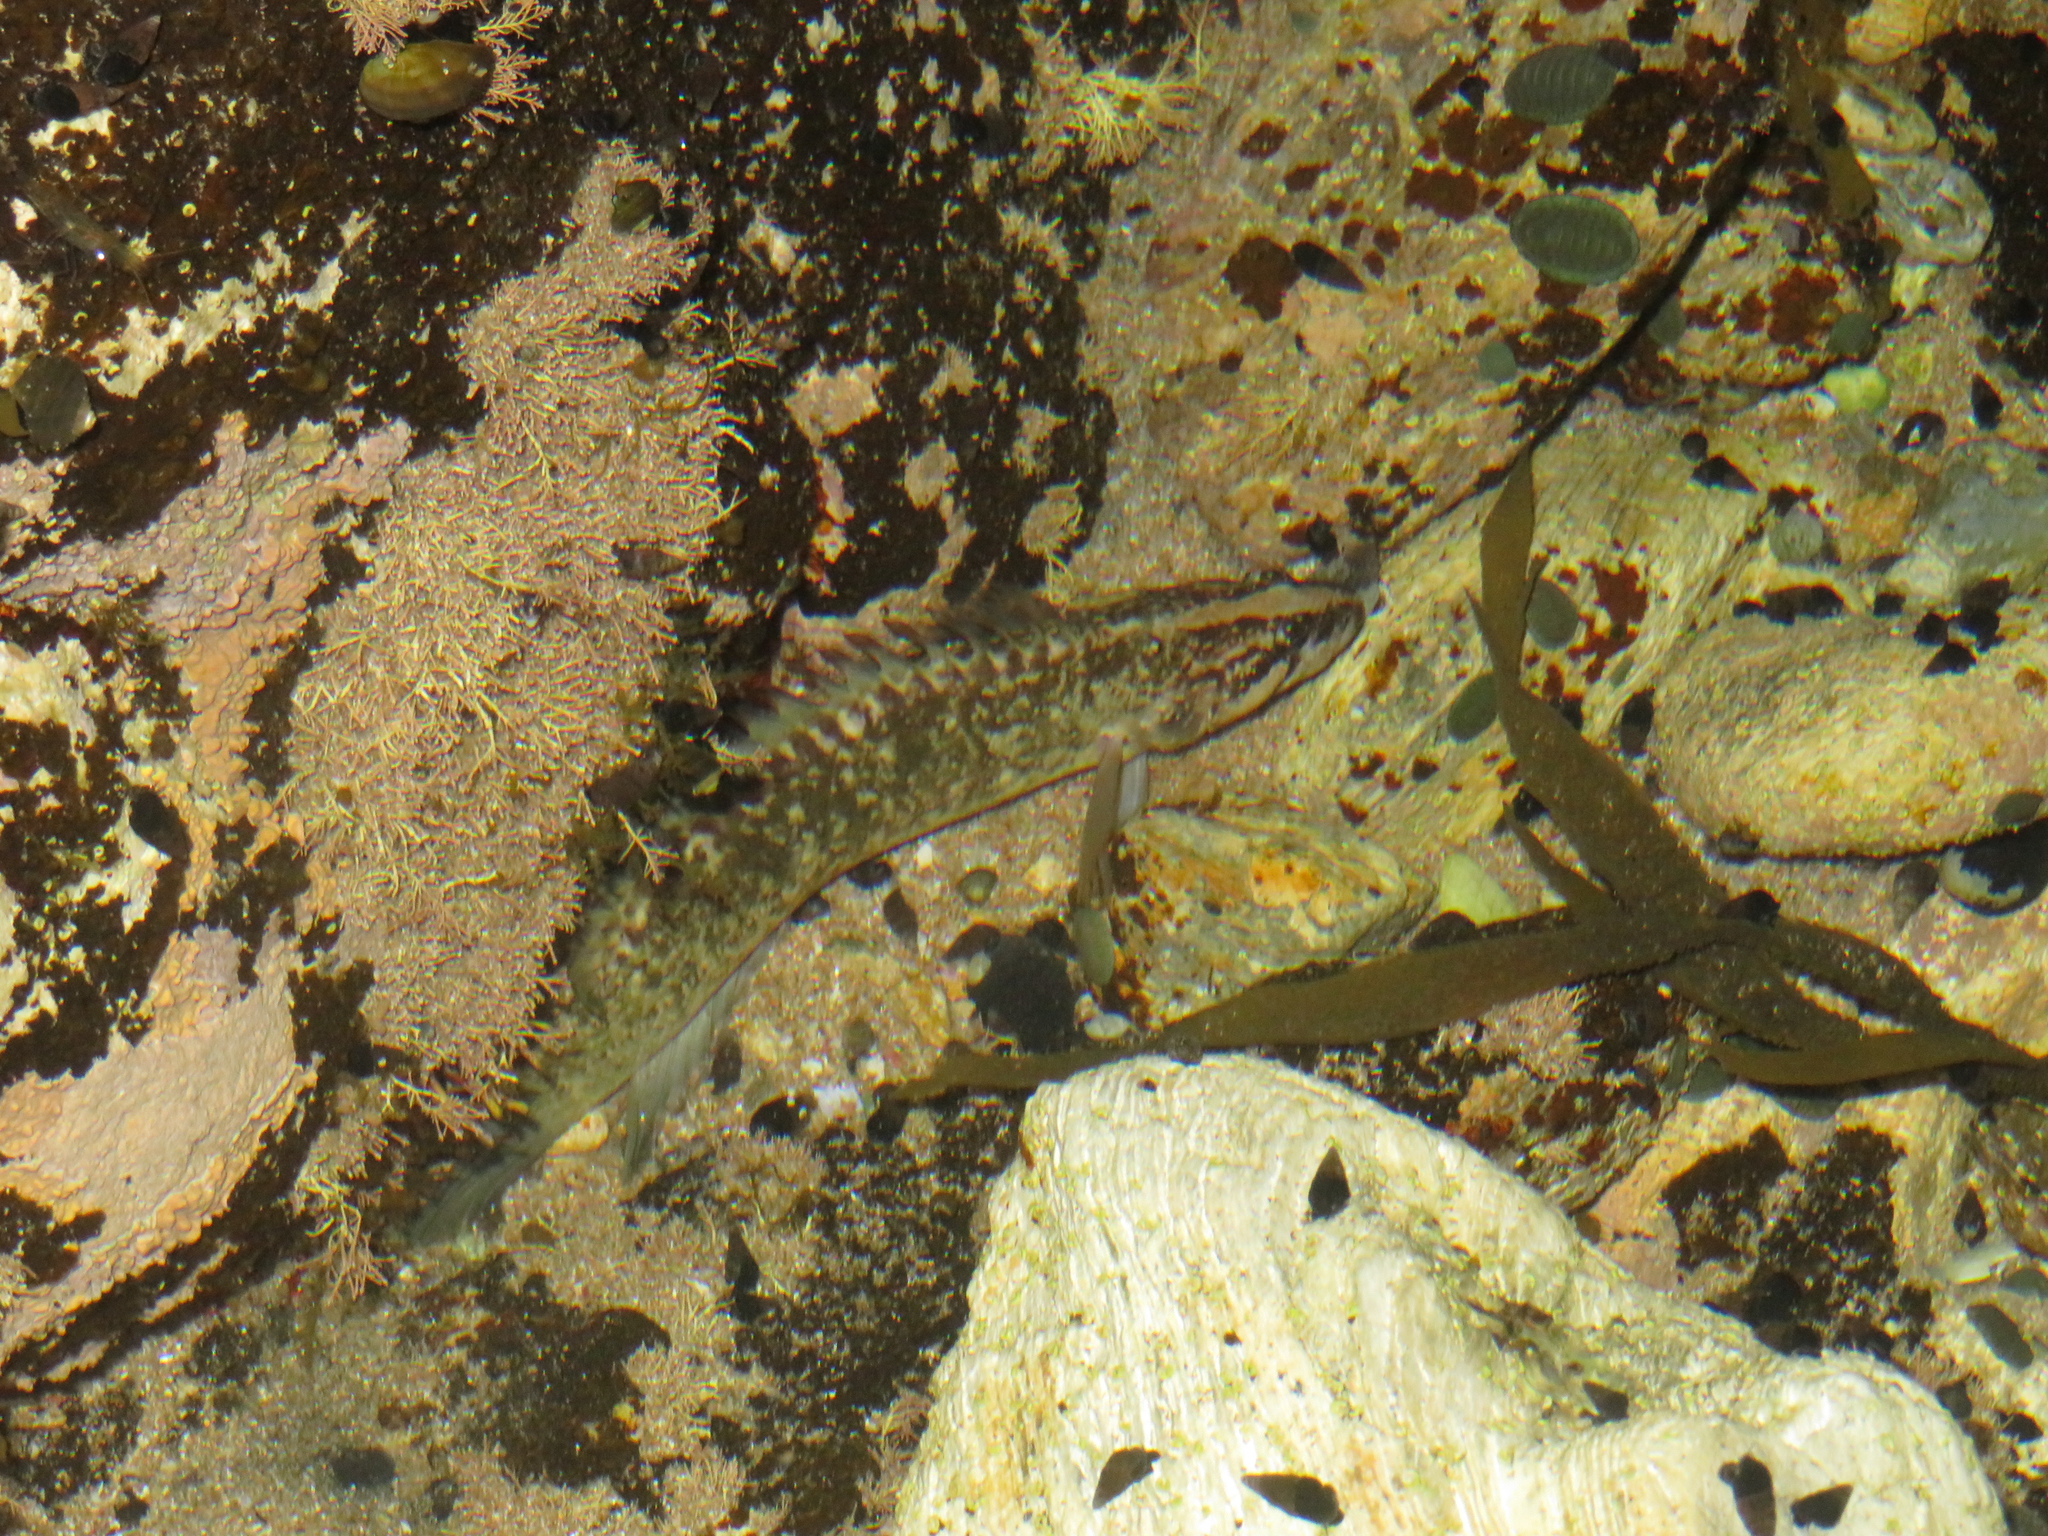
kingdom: Animalia
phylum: Chordata
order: Perciformes
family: Plesiopidae
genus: Acanthoclinus
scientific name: Acanthoclinus fuscus
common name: Olive rockfish
